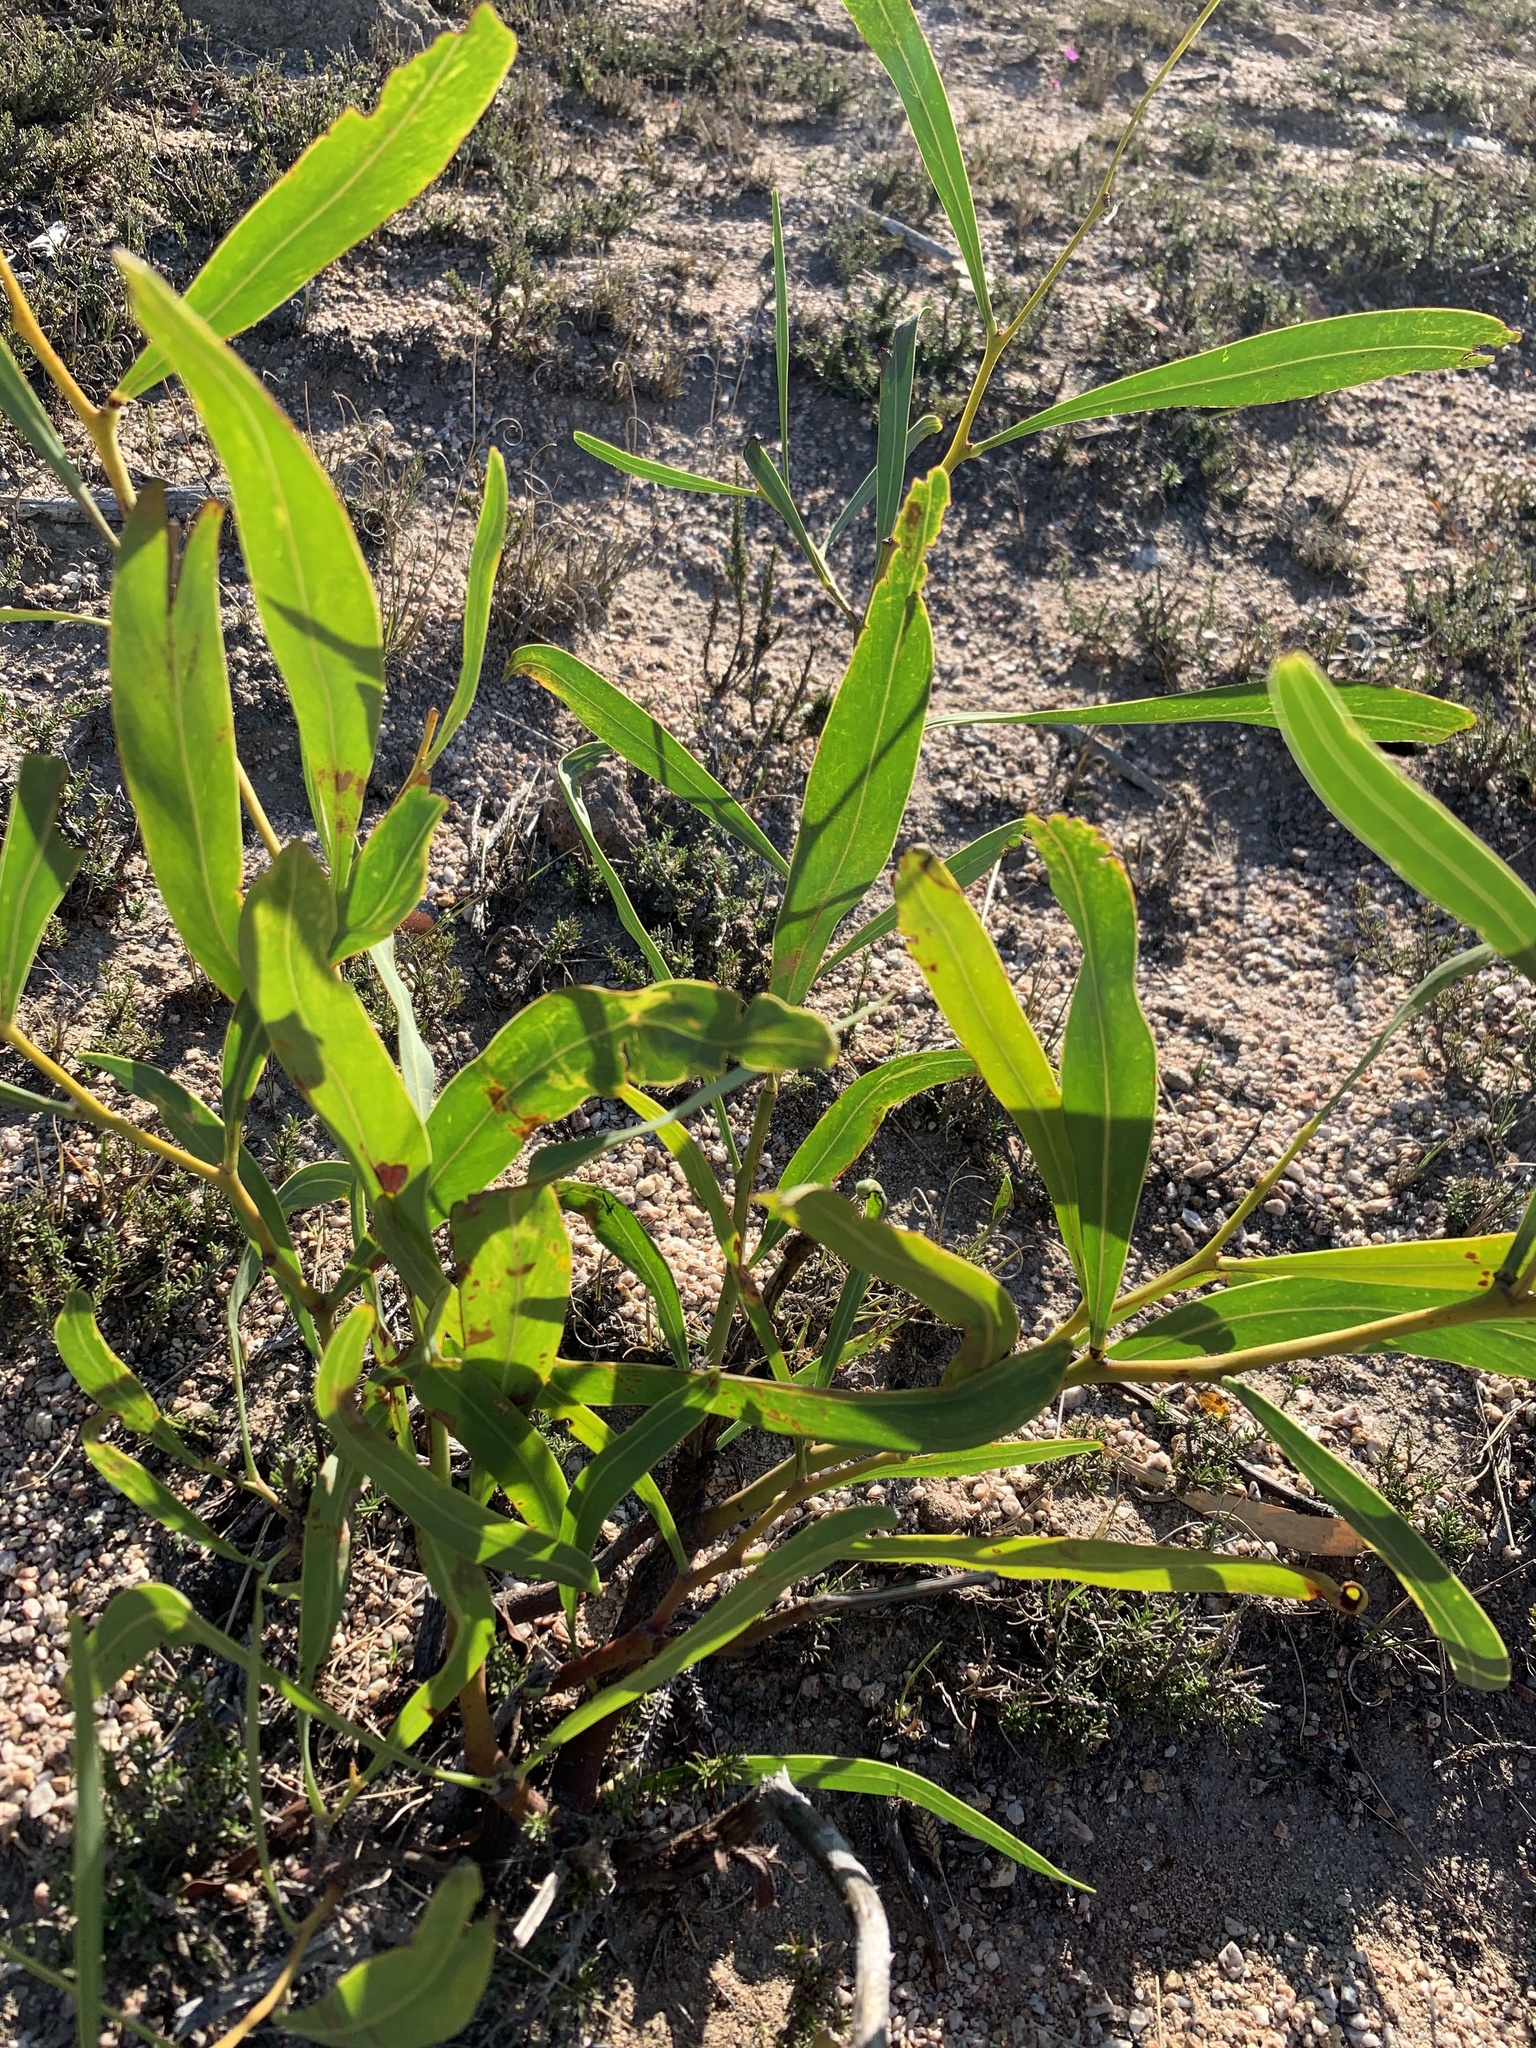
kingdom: Plantae
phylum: Tracheophyta
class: Magnoliopsida
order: Fabales
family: Fabaceae
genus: Acacia
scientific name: Acacia saligna
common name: Orange wattle
